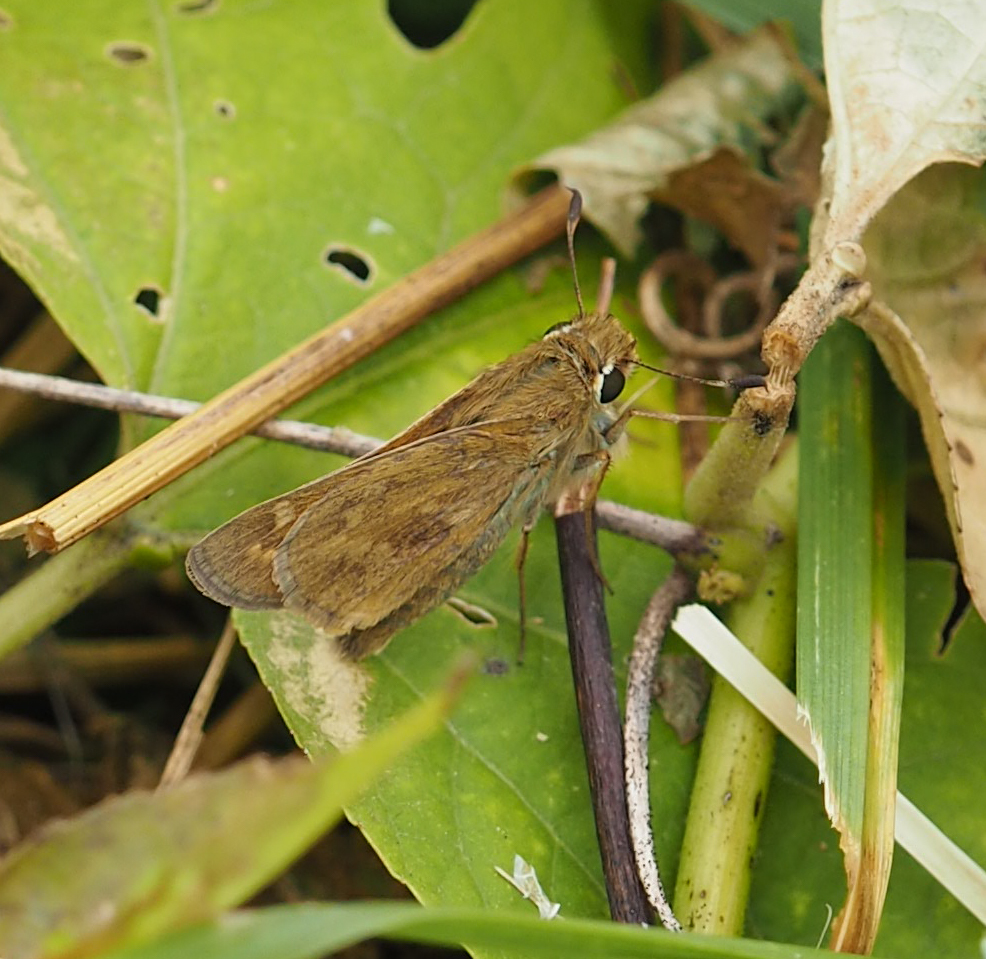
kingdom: Animalia
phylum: Arthropoda
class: Insecta
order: Lepidoptera
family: Hesperiidae
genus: Atalopedes
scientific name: Atalopedes
